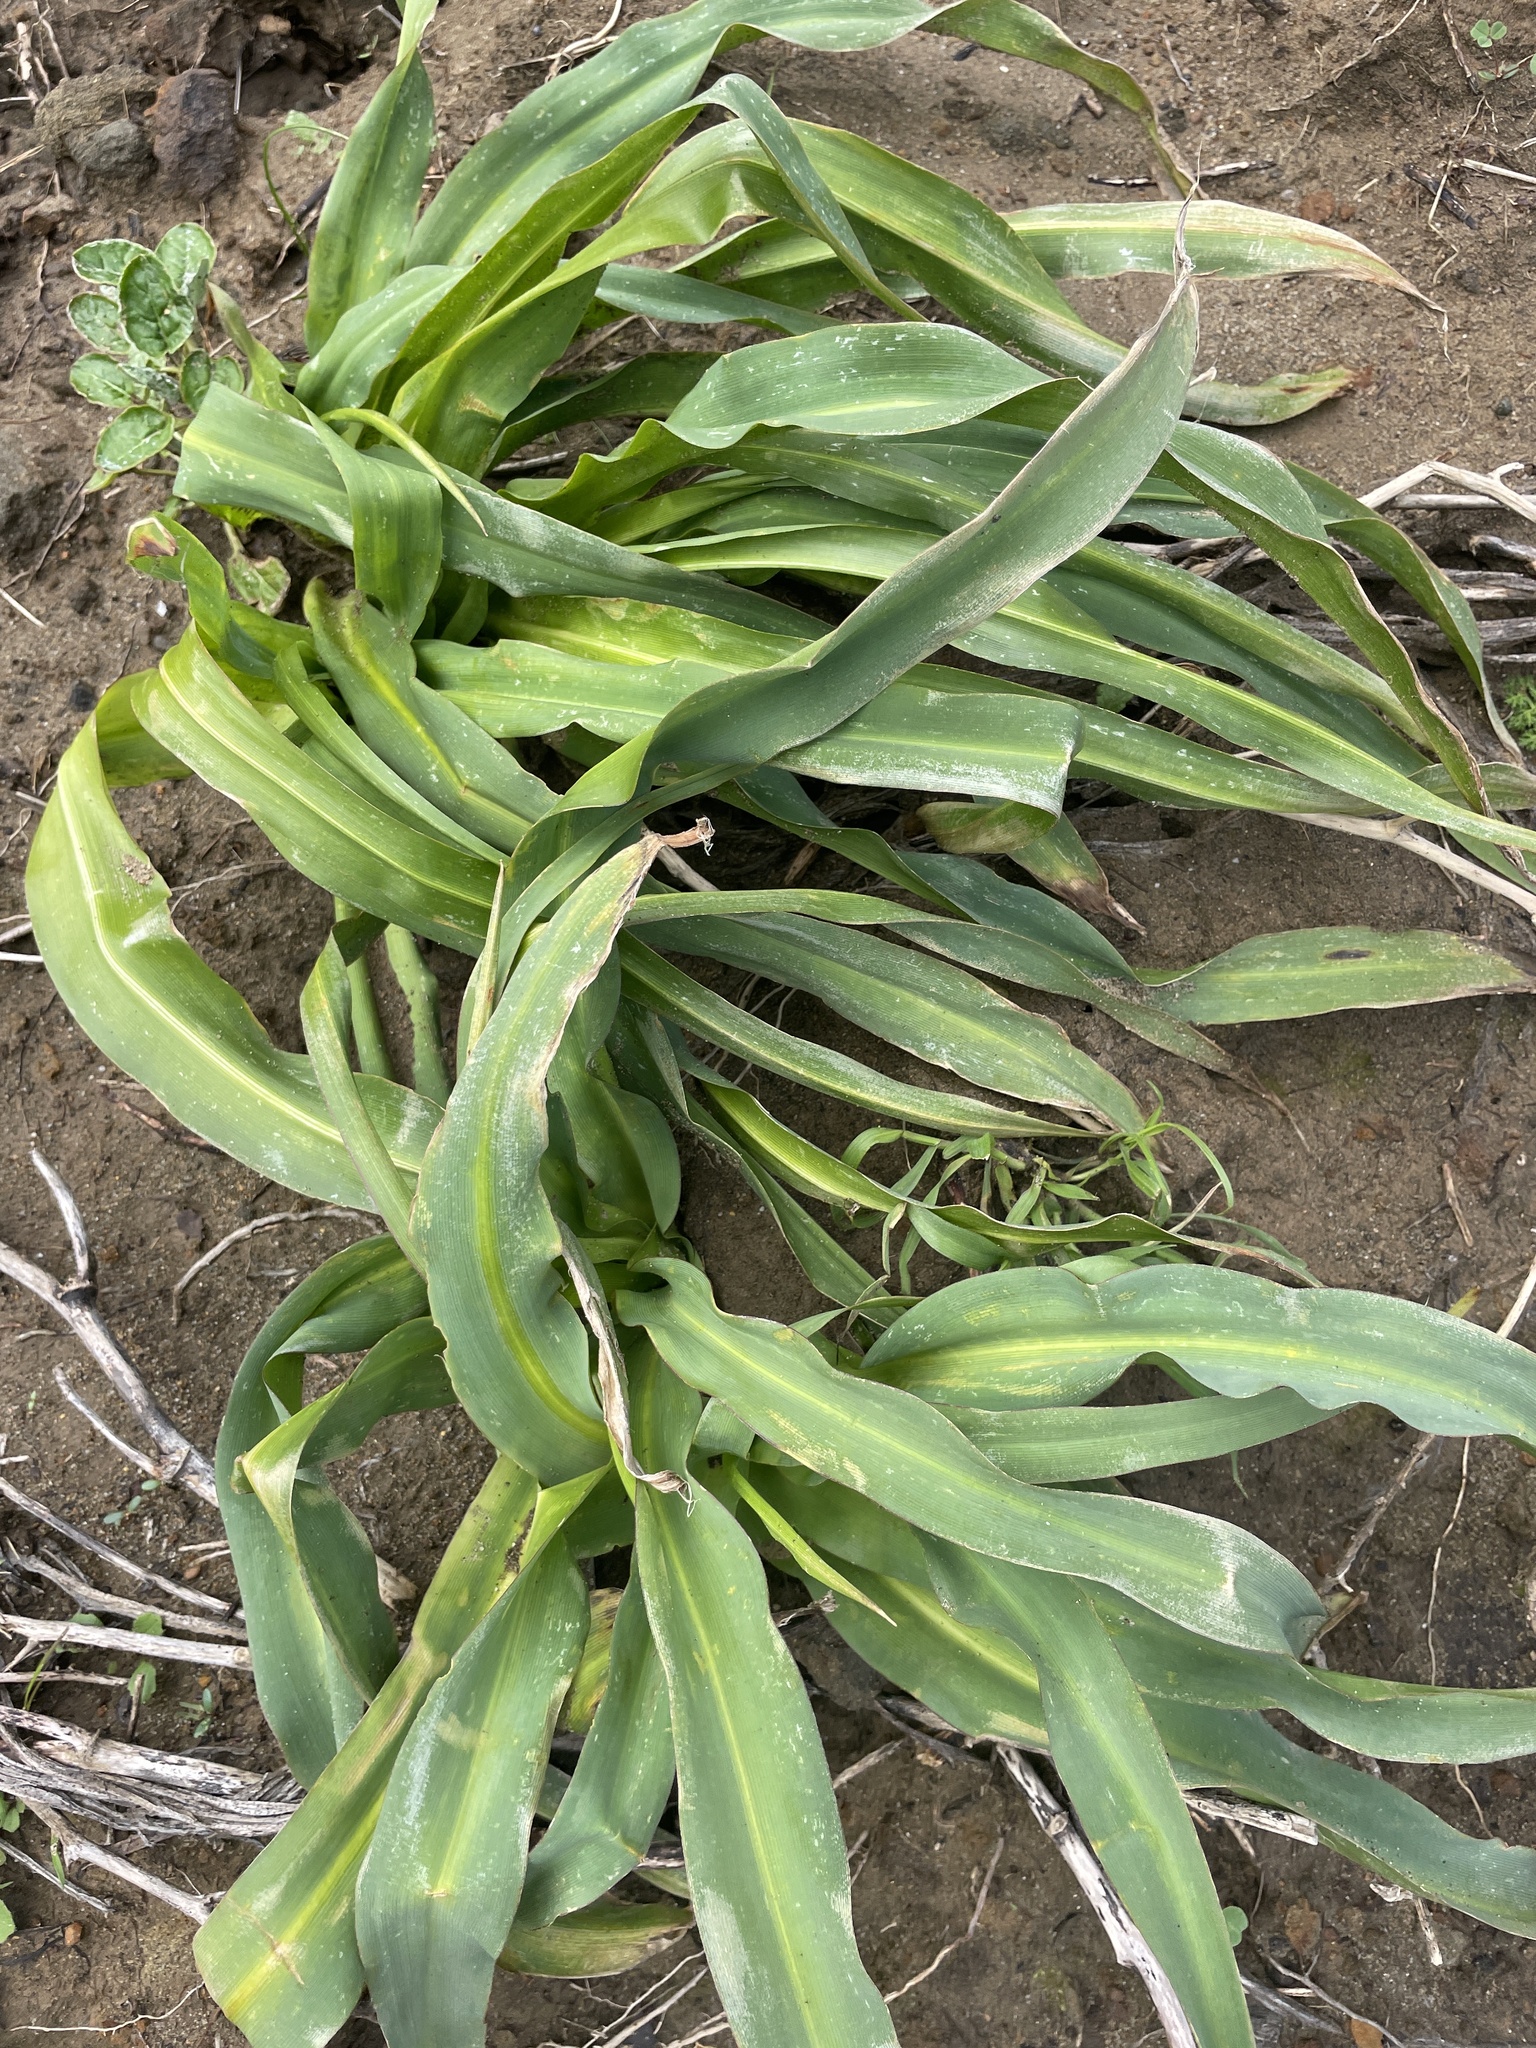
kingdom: Plantae
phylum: Tracheophyta
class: Liliopsida
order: Asparagales
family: Asparagaceae
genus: Chlorogalum
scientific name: Chlorogalum pomeridianum
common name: Amole
